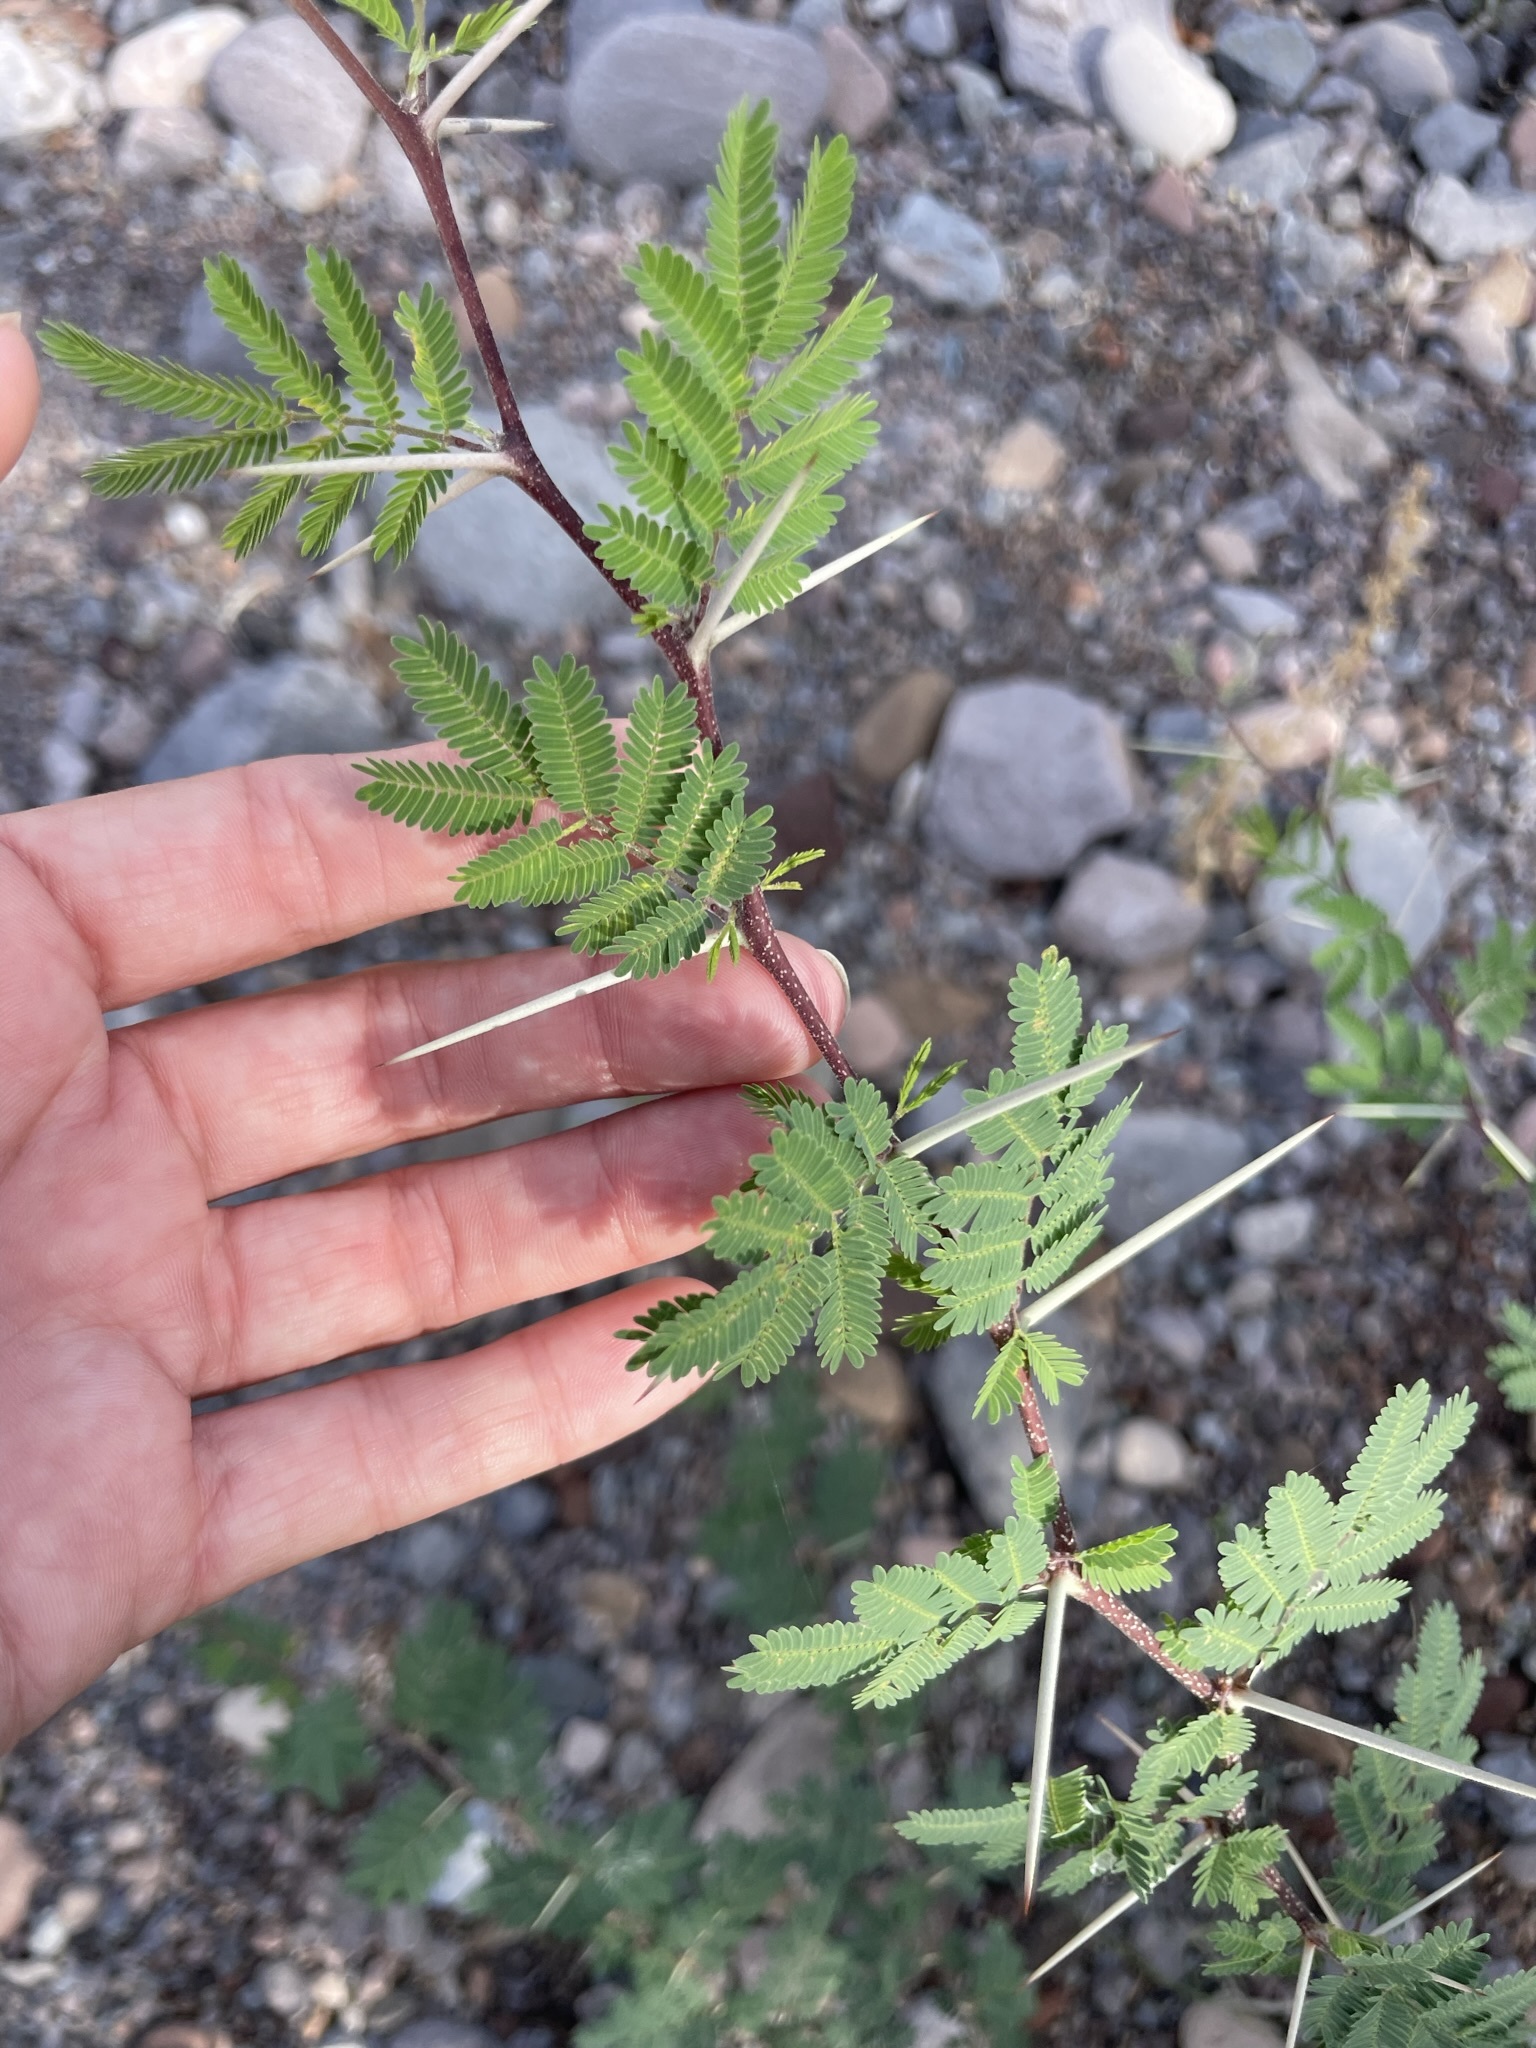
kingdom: Plantae
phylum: Tracheophyta
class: Magnoliopsida
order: Fabales
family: Fabaceae
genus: Vachellia
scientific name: Vachellia farnesiana
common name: Sweet acacia
